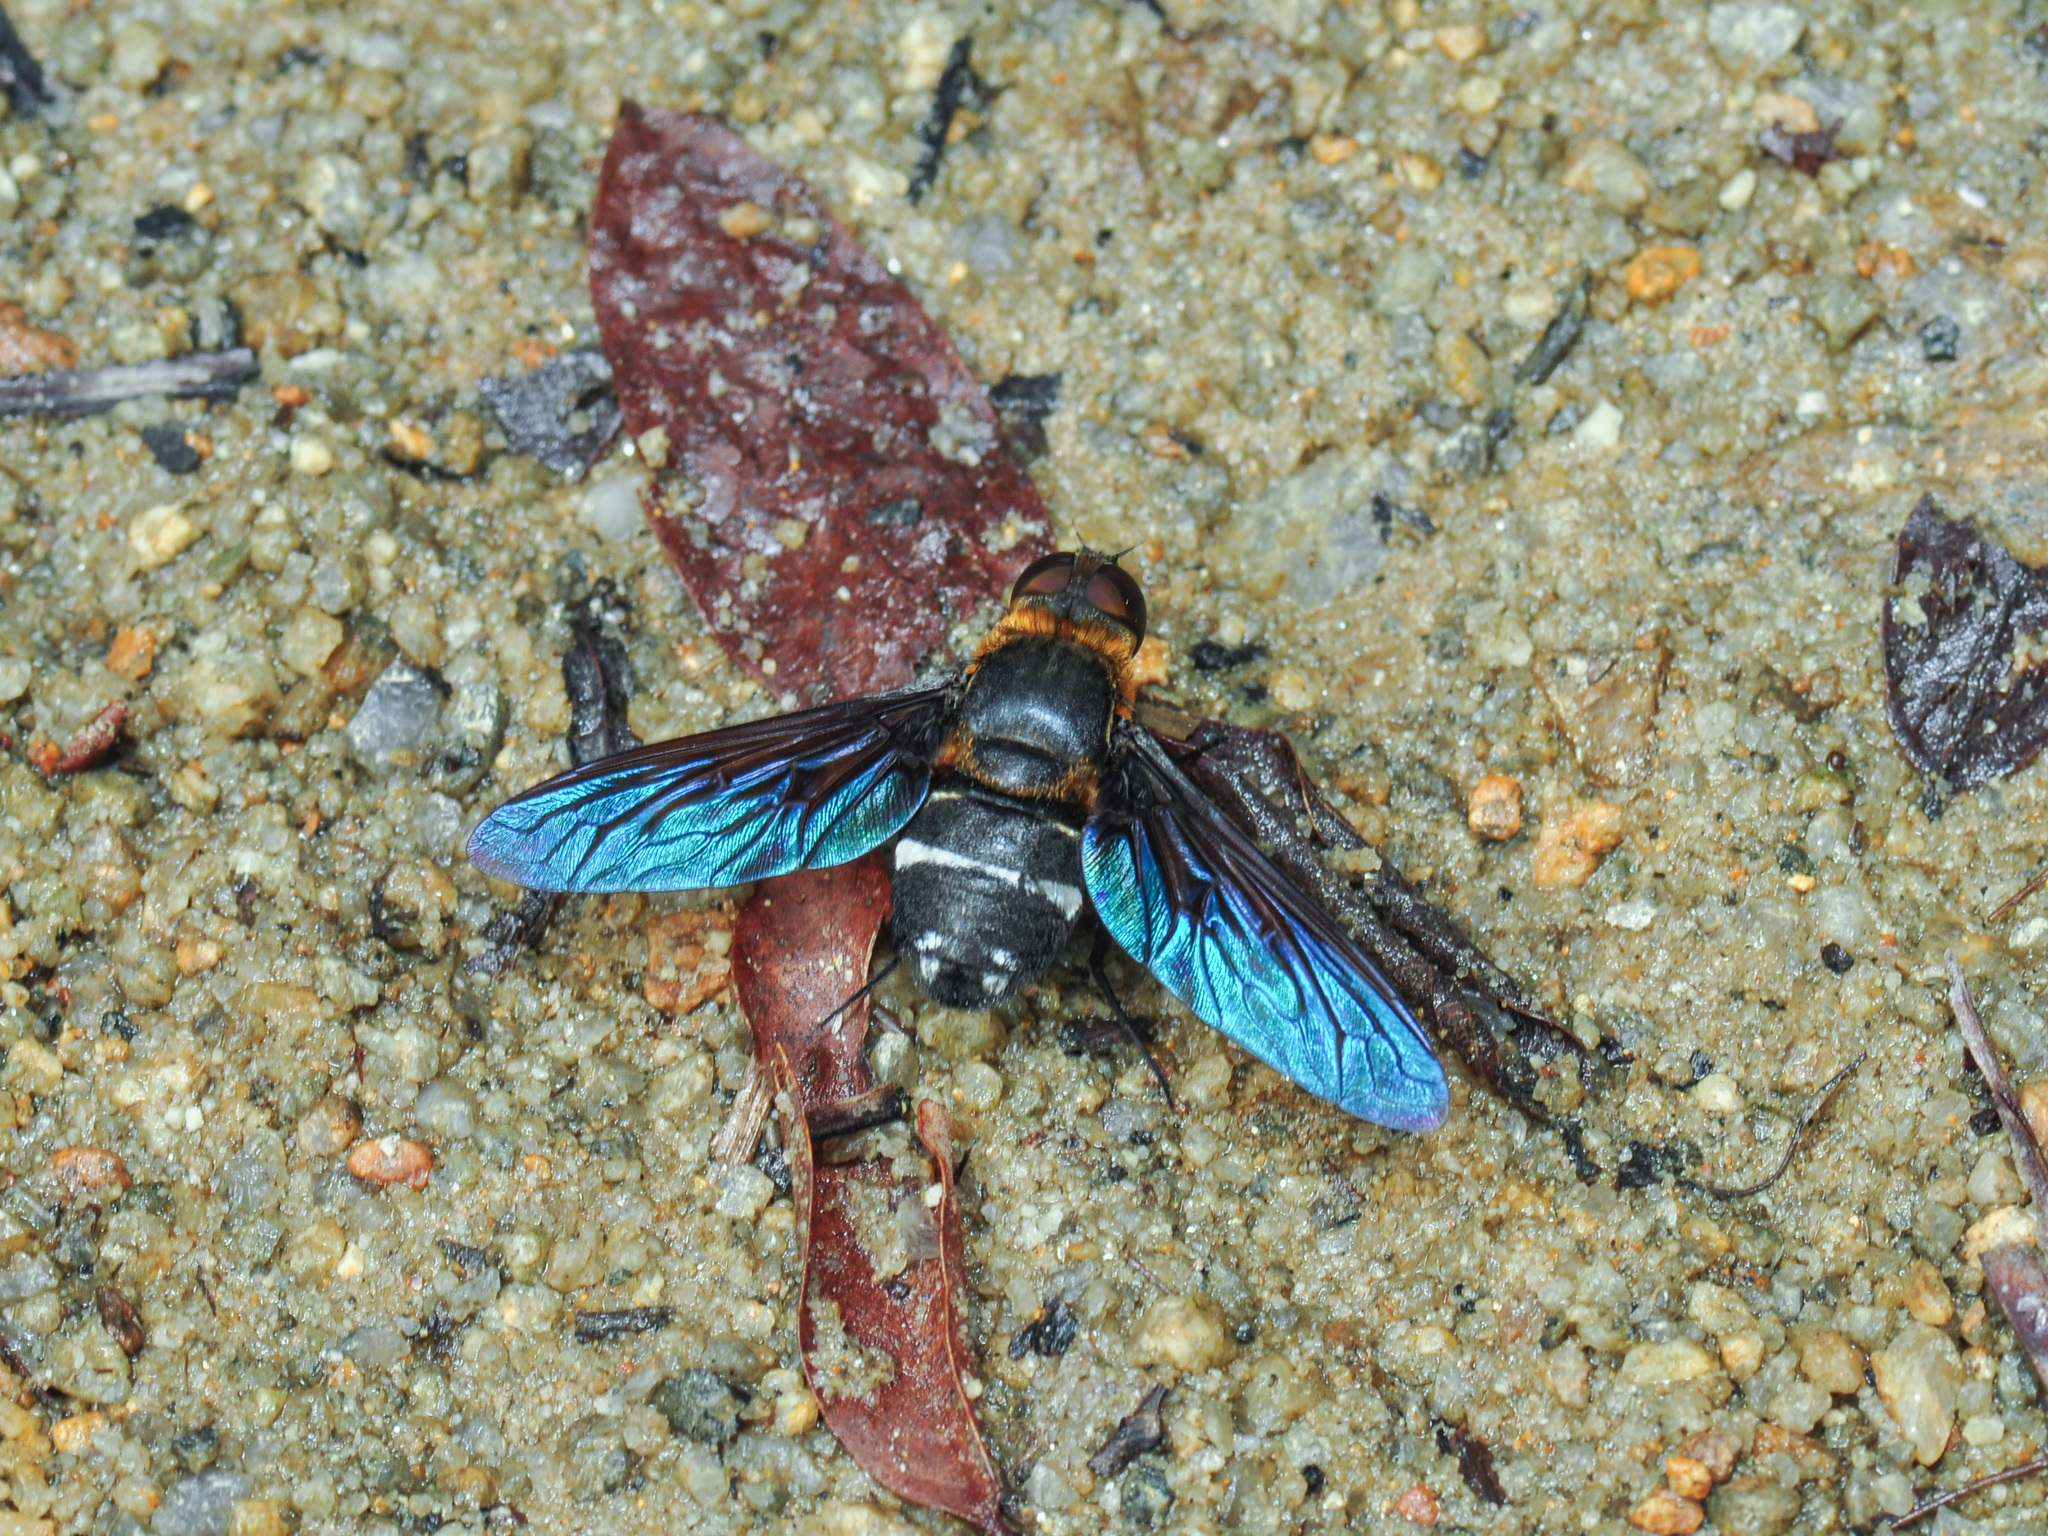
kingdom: Animalia
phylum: Arthropoda
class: Insecta
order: Diptera
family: Bombyliidae
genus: Ligyra
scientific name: Ligyra tantalus
